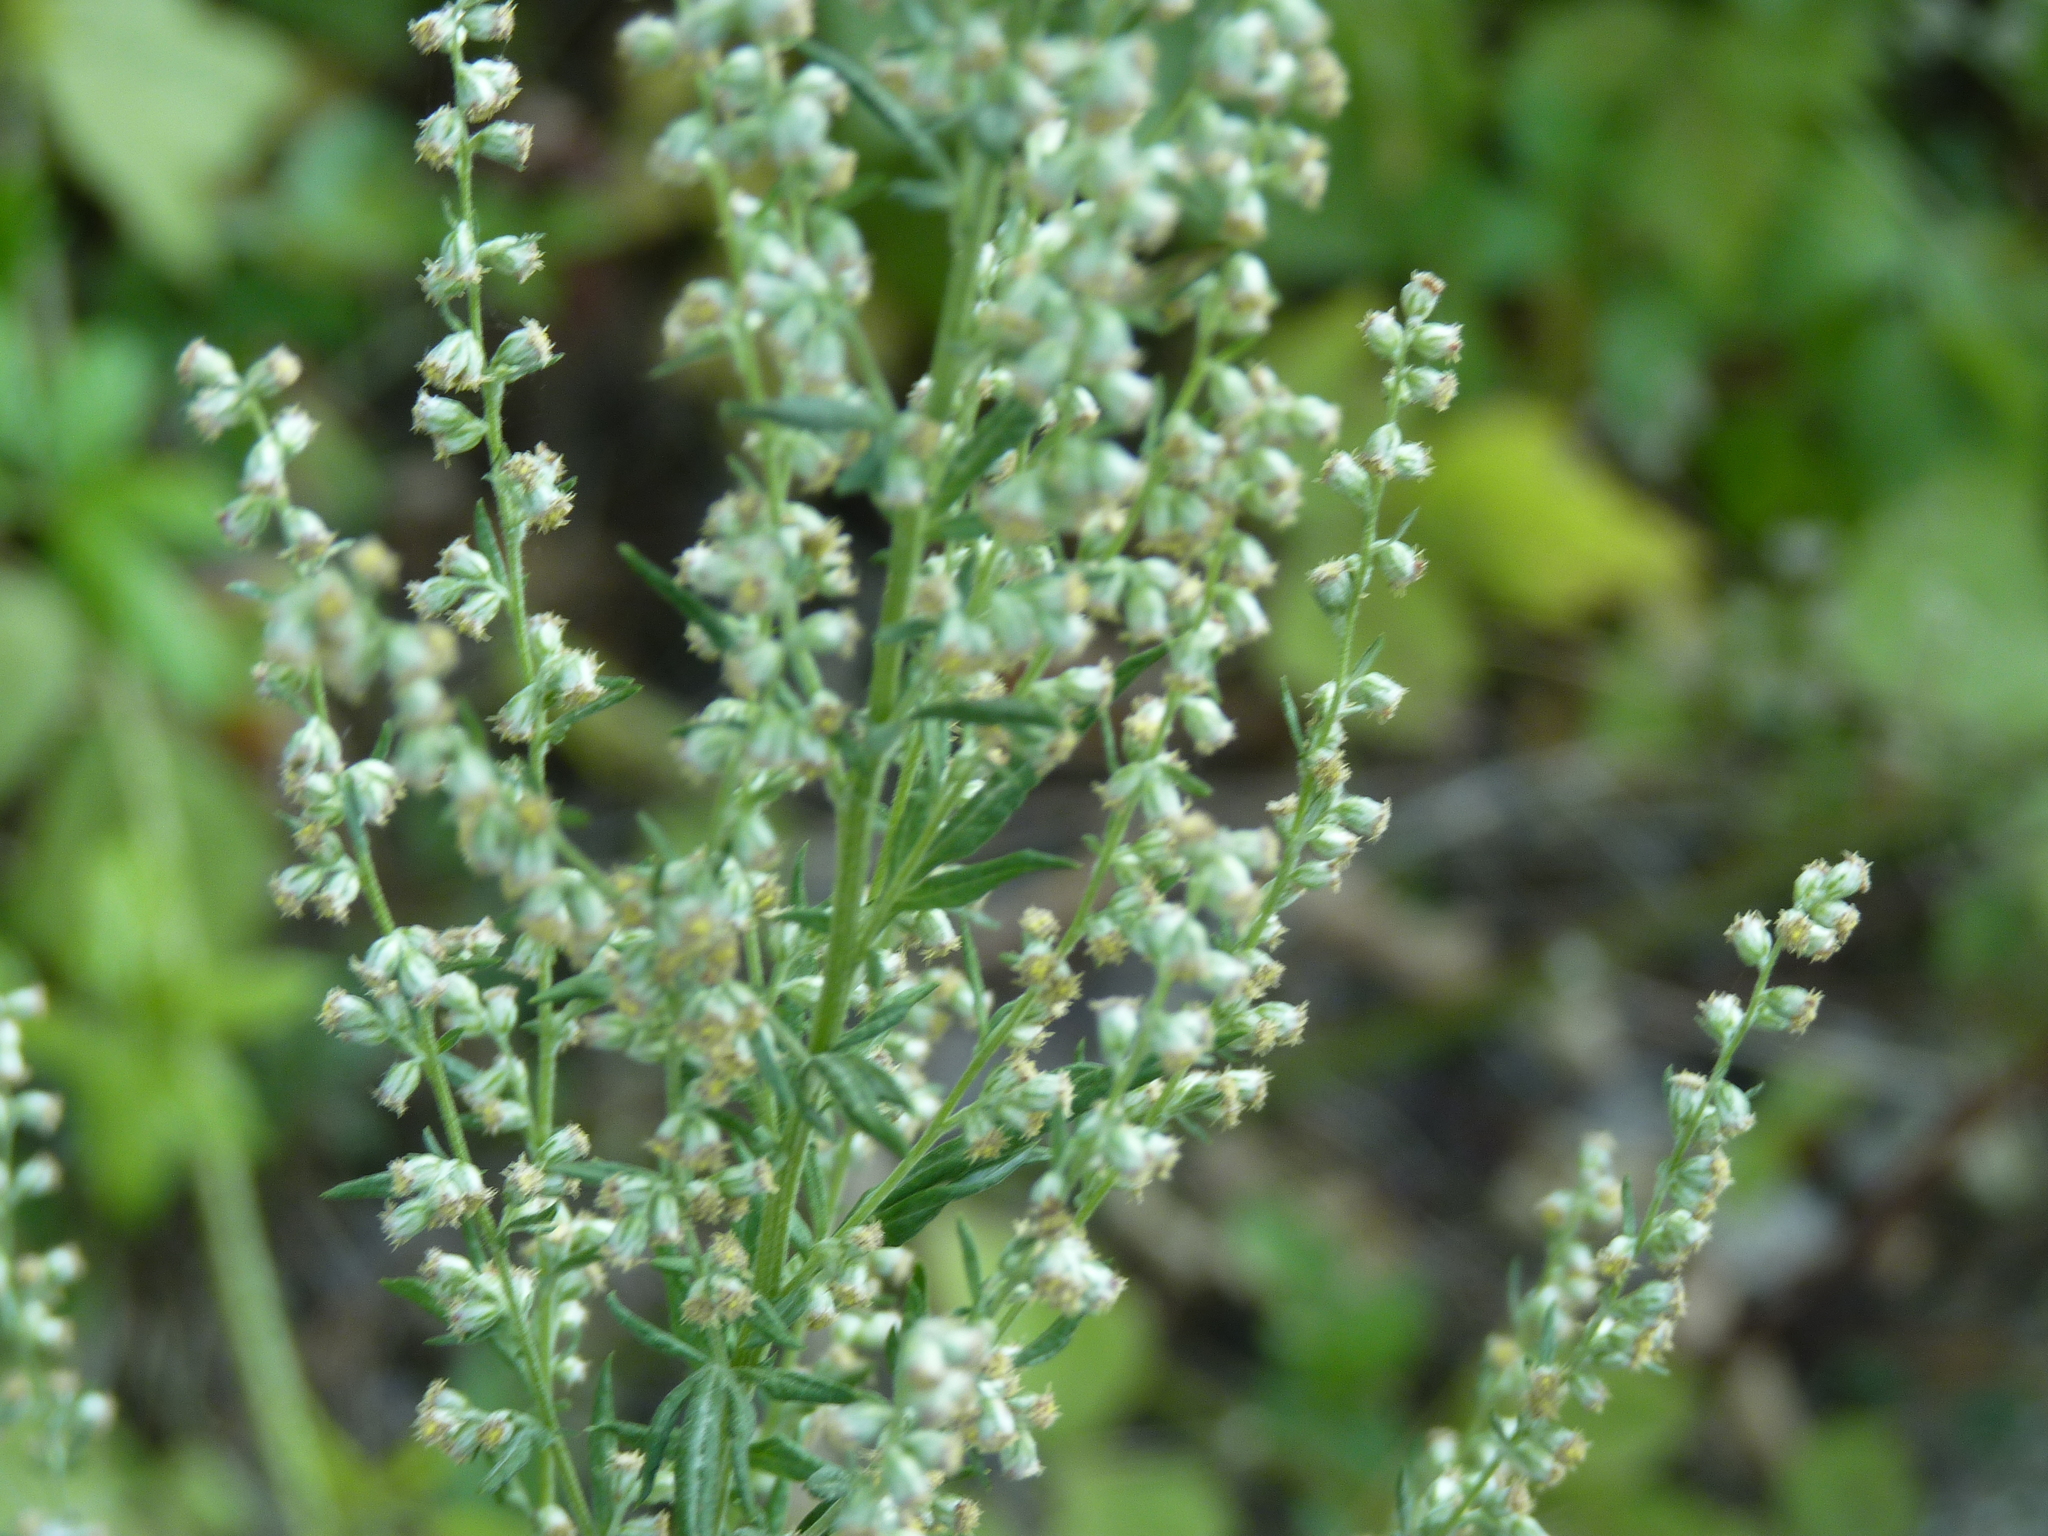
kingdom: Plantae
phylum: Tracheophyta
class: Magnoliopsida
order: Asterales
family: Asteraceae
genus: Artemisia
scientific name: Artemisia vulgaris
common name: Mugwort
